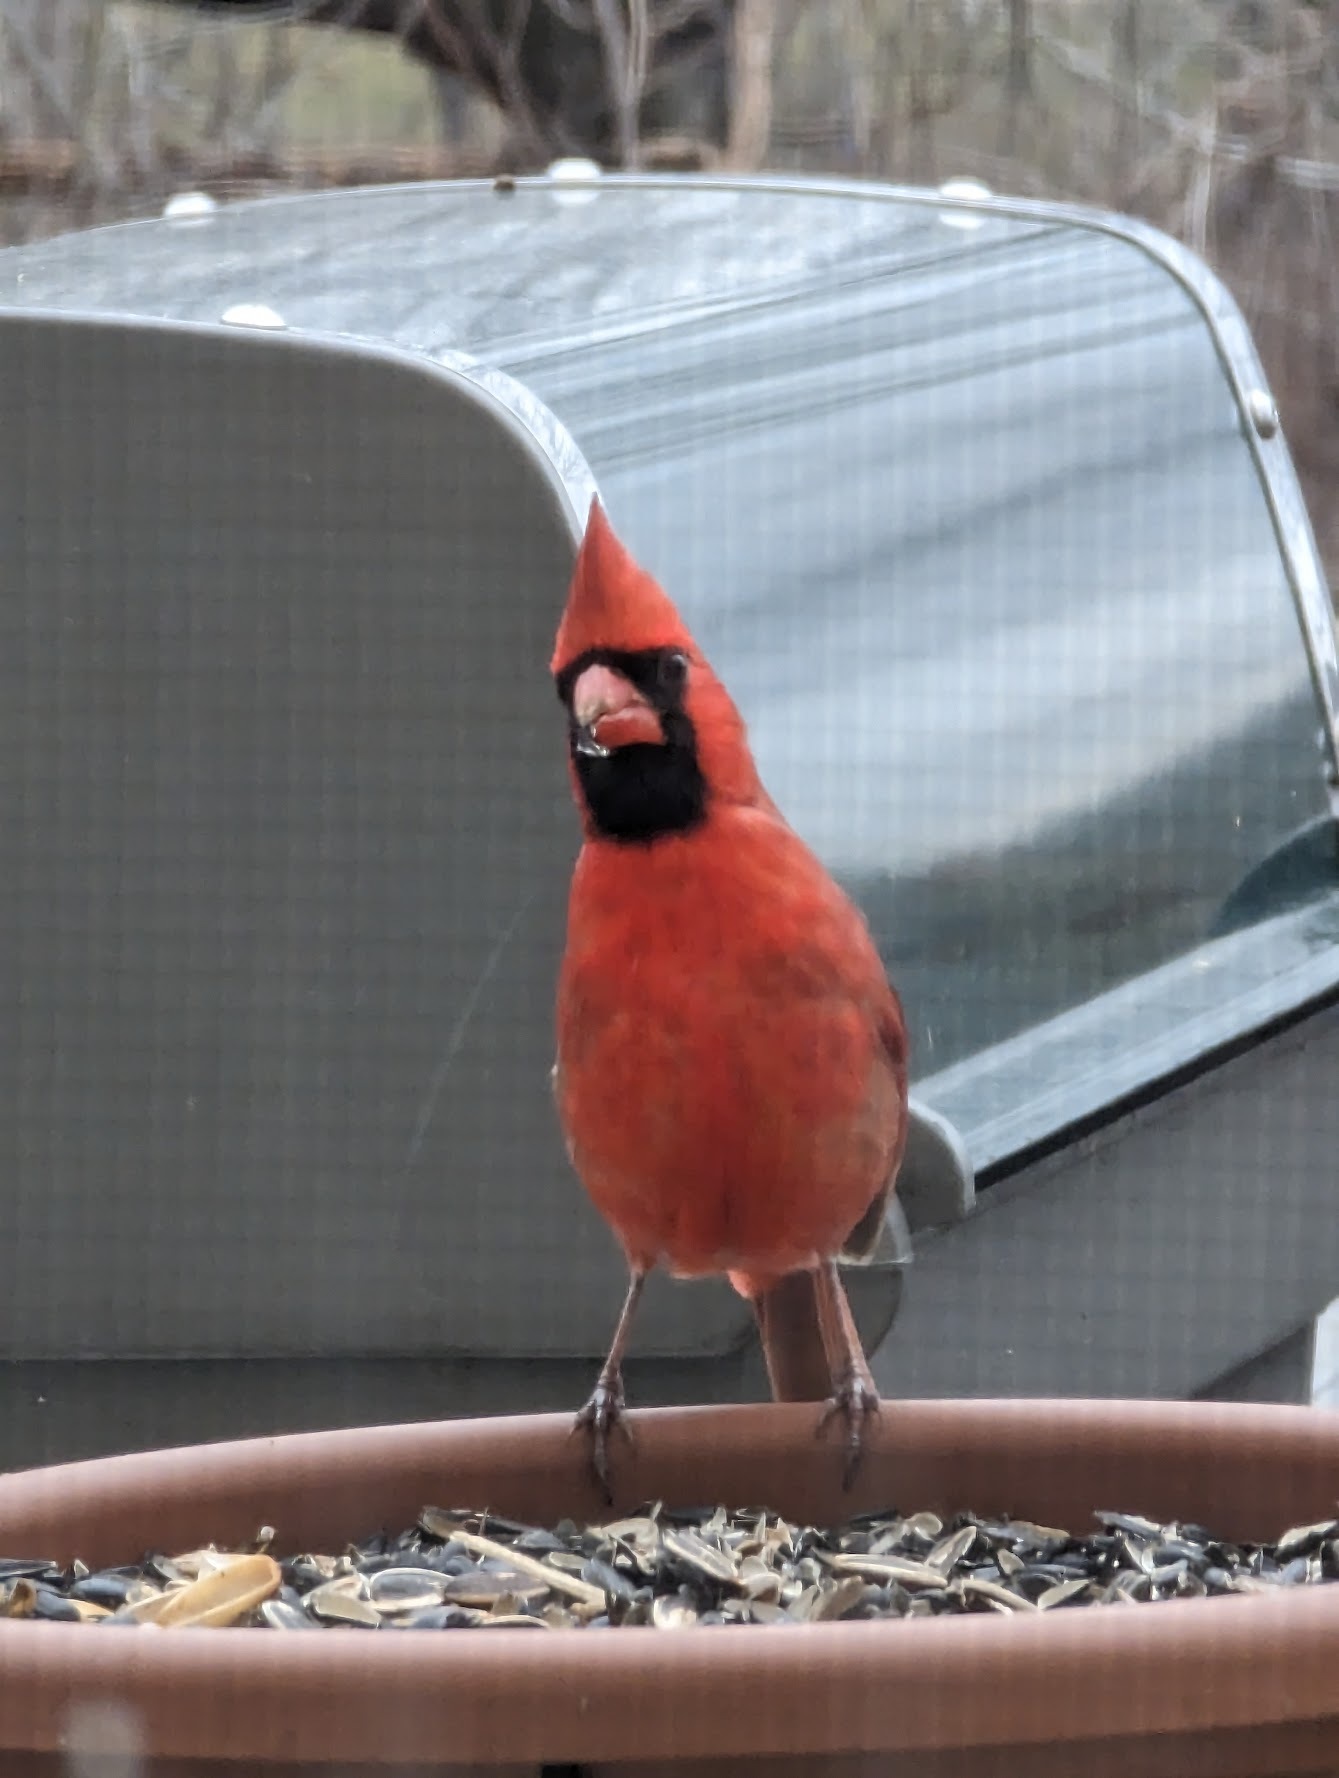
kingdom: Animalia
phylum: Chordata
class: Aves
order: Passeriformes
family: Cardinalidae
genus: Cardinalis
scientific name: Cardinalis cardinalis
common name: Northern cardinal
